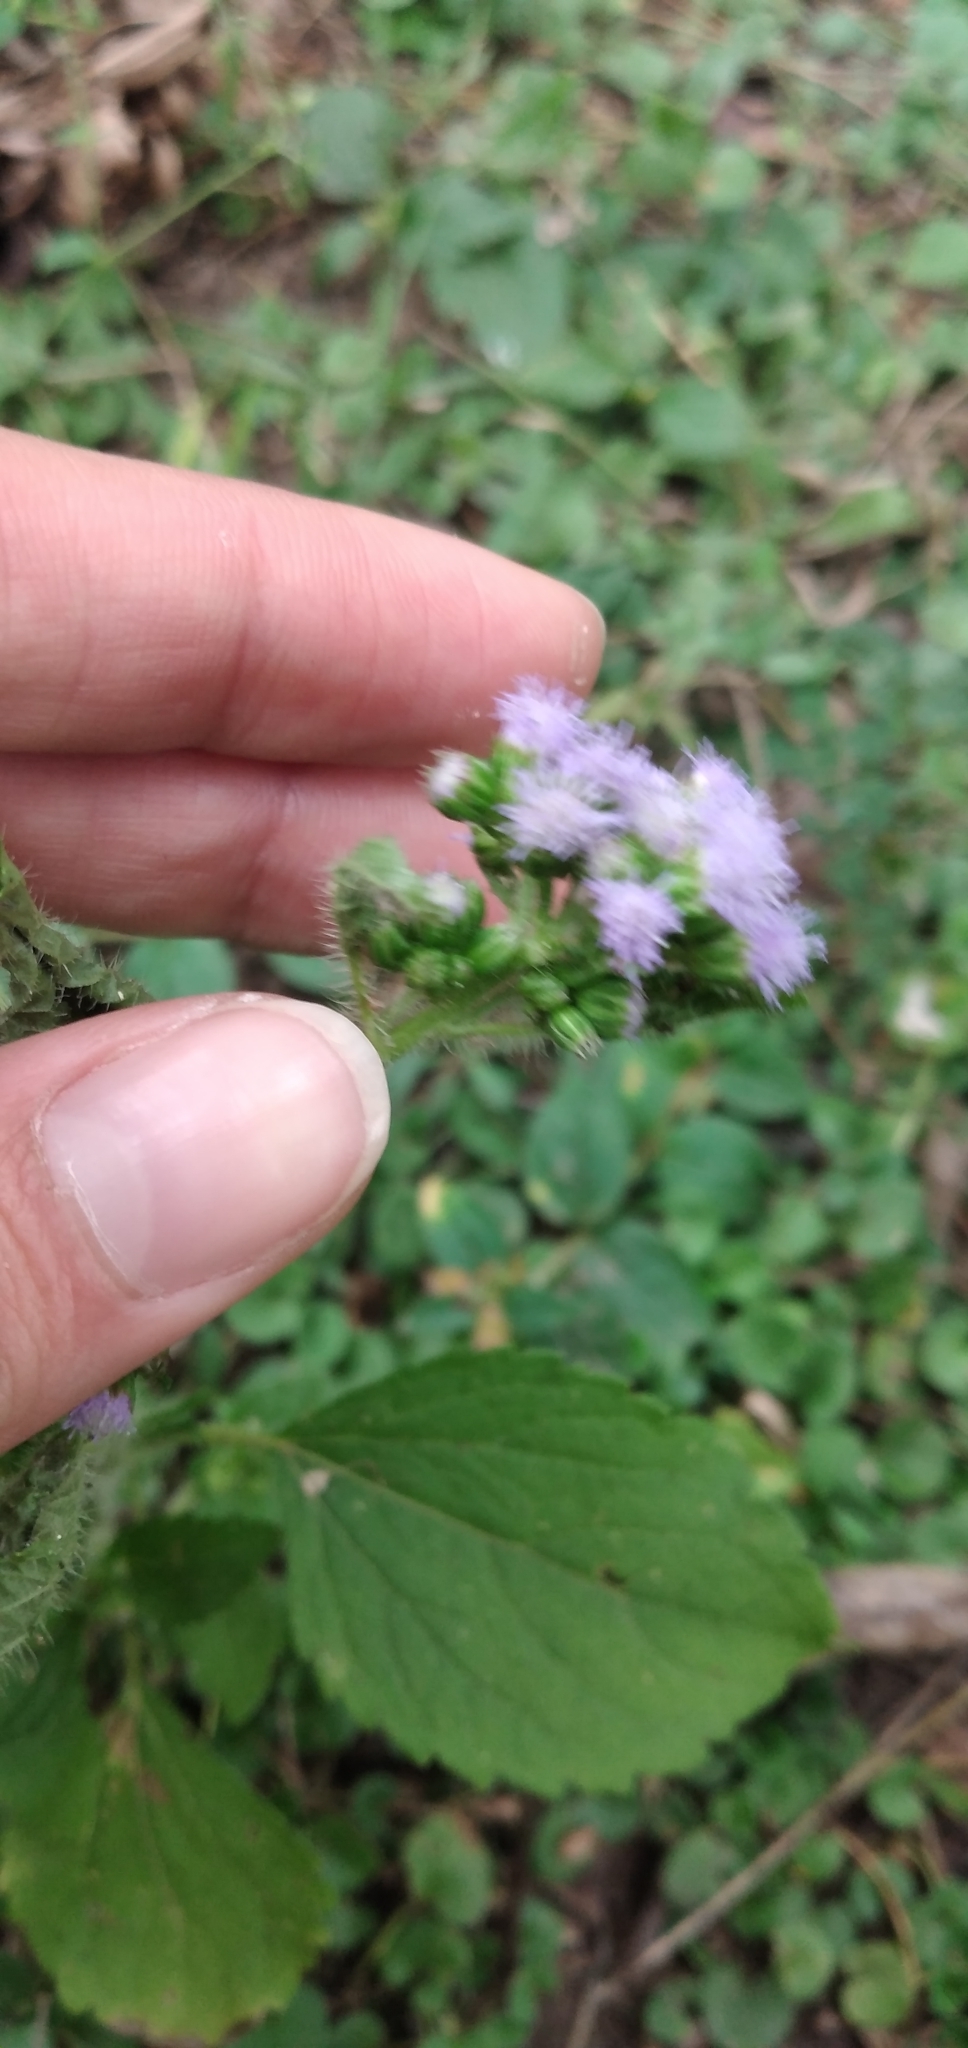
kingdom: Plantae
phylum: Tracheophyta
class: Magnoliopsida
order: Asterales
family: Asteraceae
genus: Ageratum
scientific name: Ageratum conyzoides
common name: Tropical whiteweed
